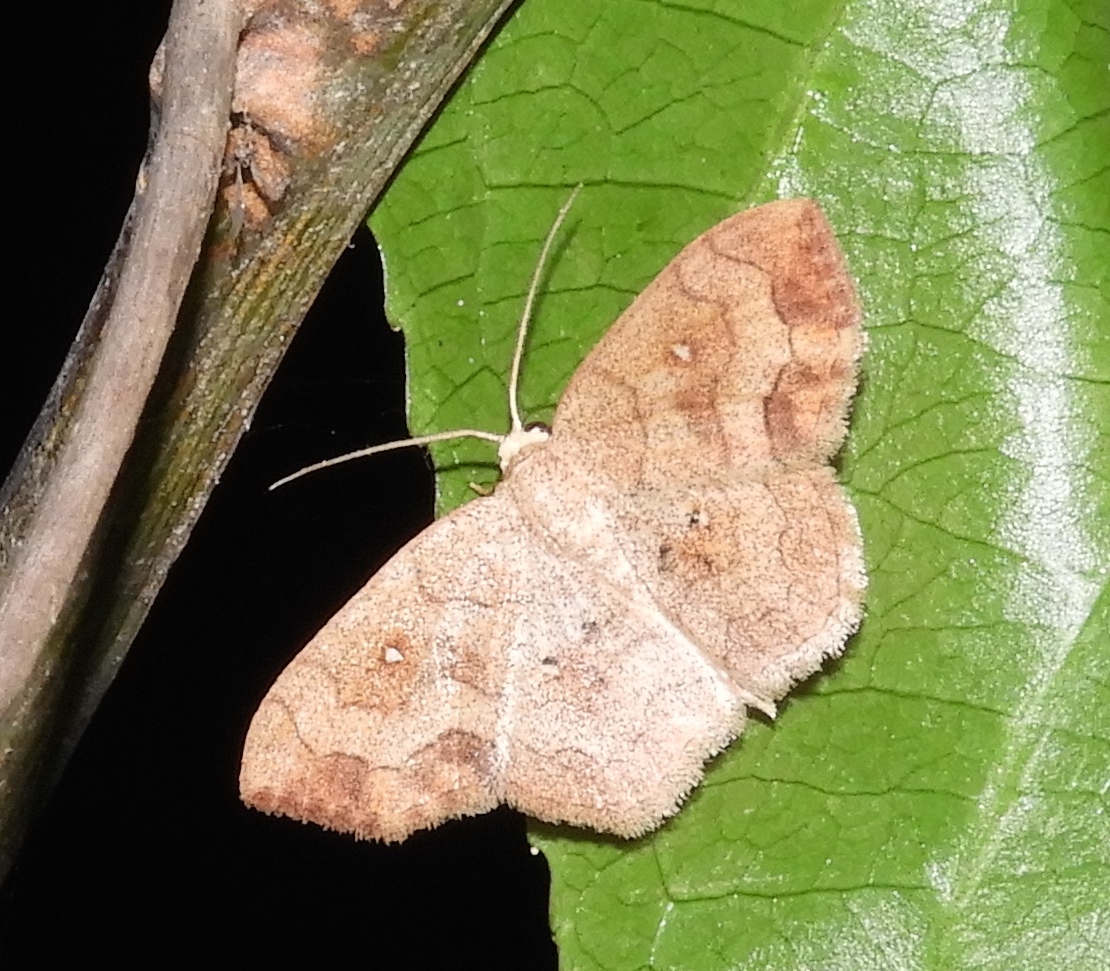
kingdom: Animalia
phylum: Arthropoda
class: Insecta
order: Lepidoptera
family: Geometridae
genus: Semaeopus
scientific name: Semaeopus
